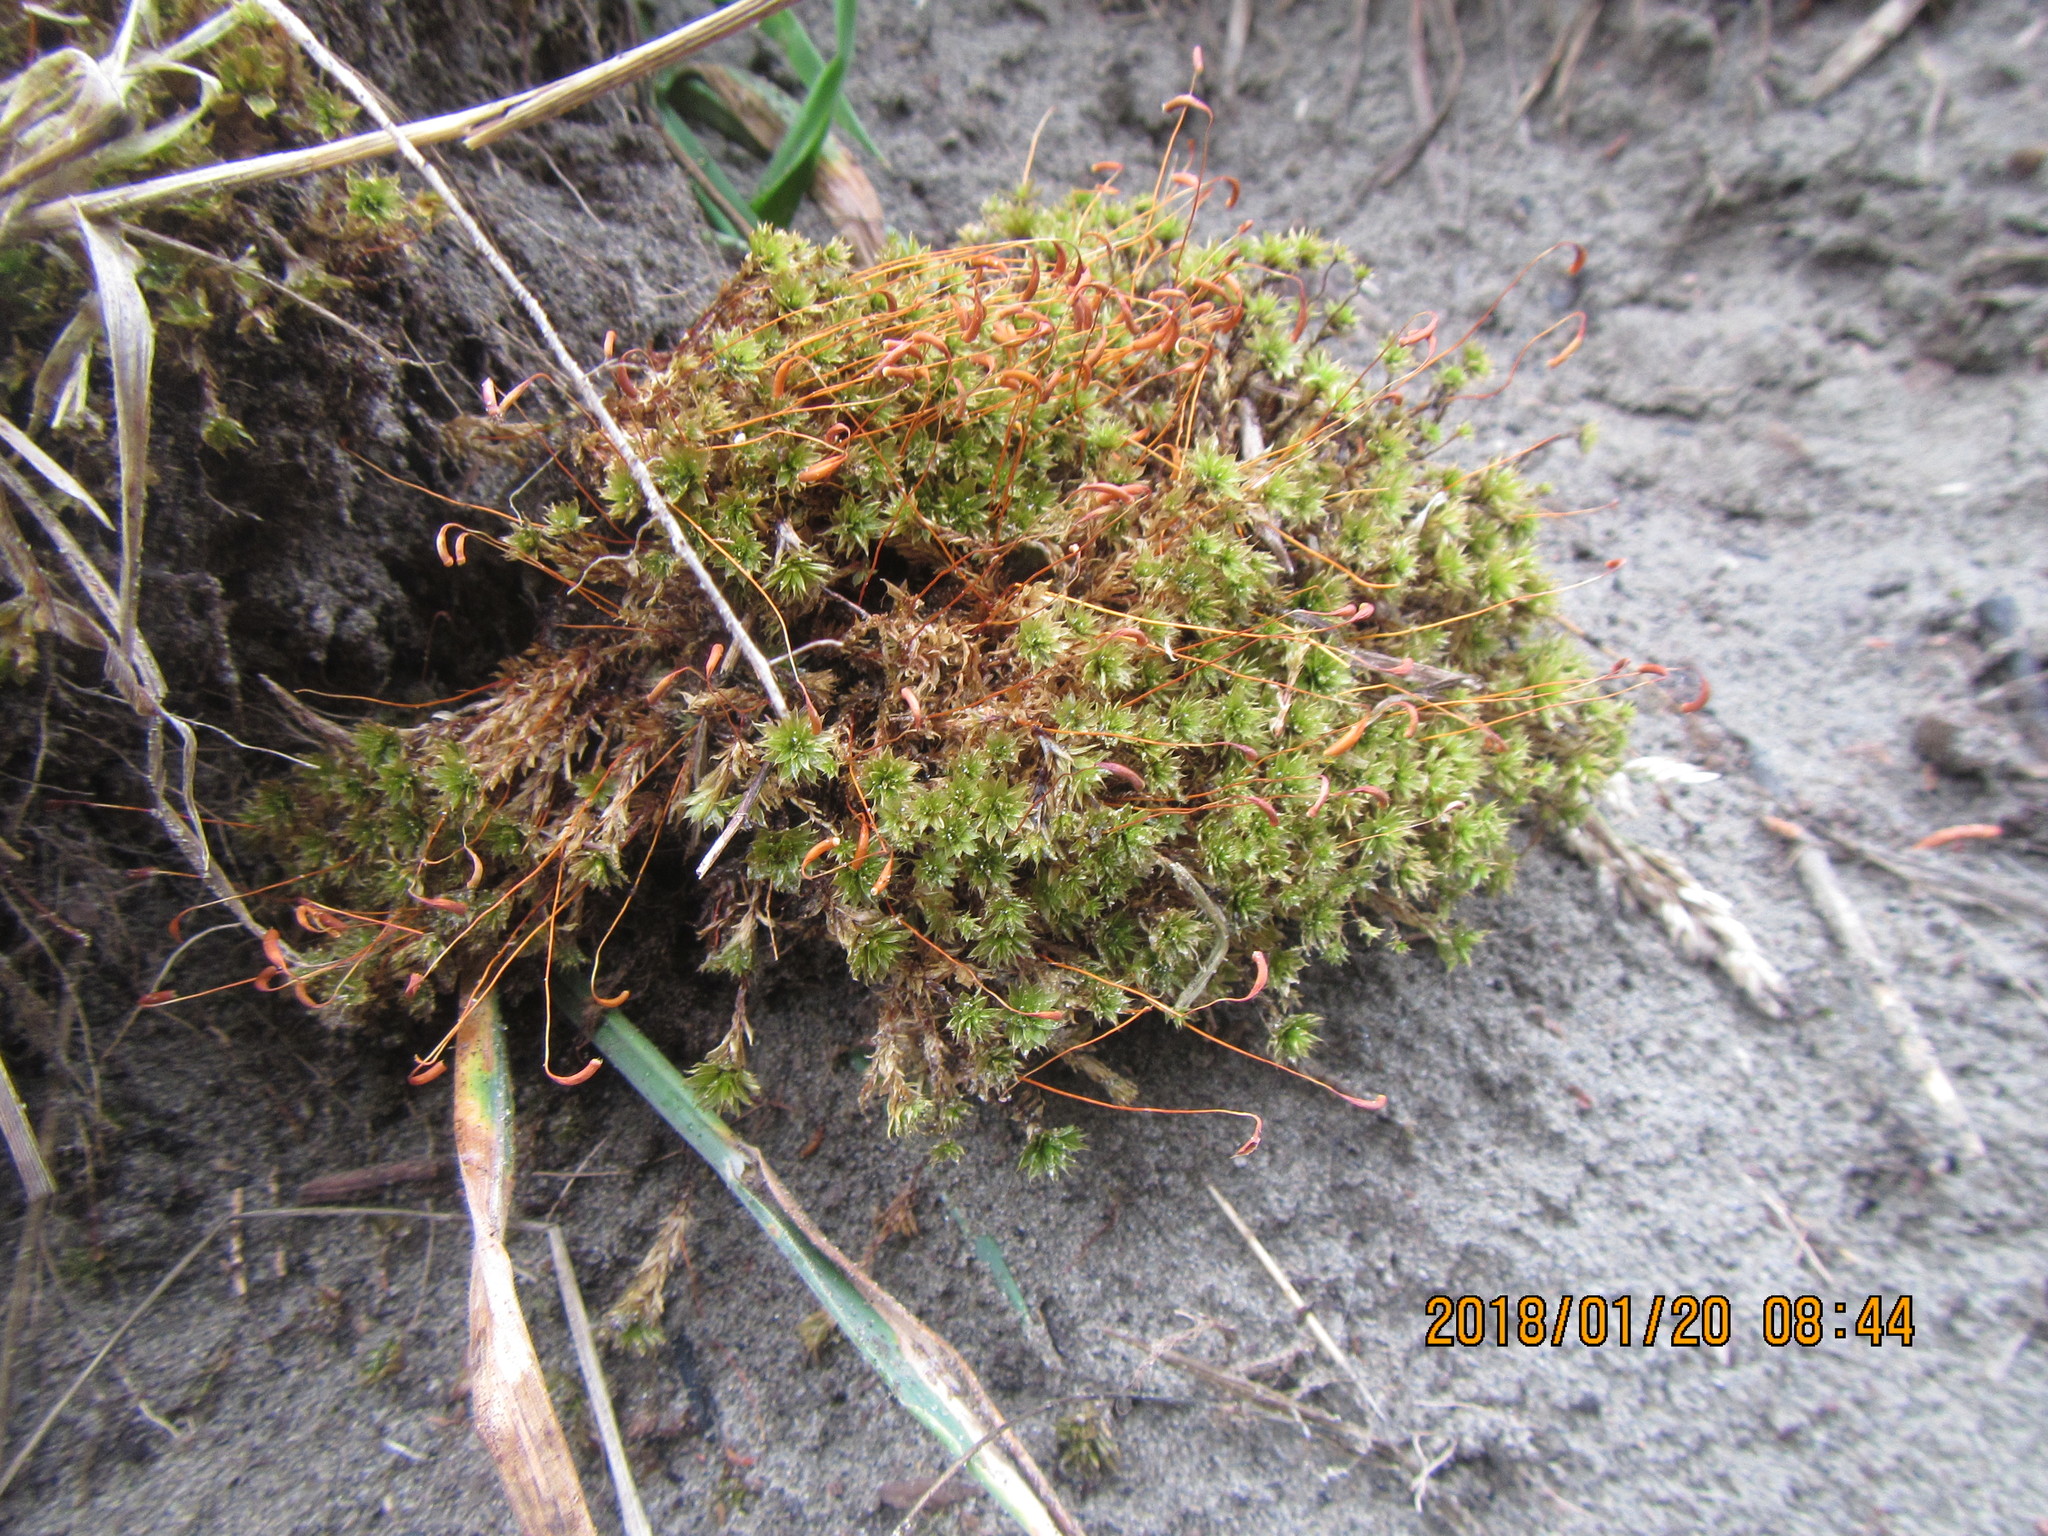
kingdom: Plantae
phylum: Bryophyta
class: Bryopsida
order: Bryales
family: Bryaceae
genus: Rosulabryum
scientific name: Rosulabryum truncorum
